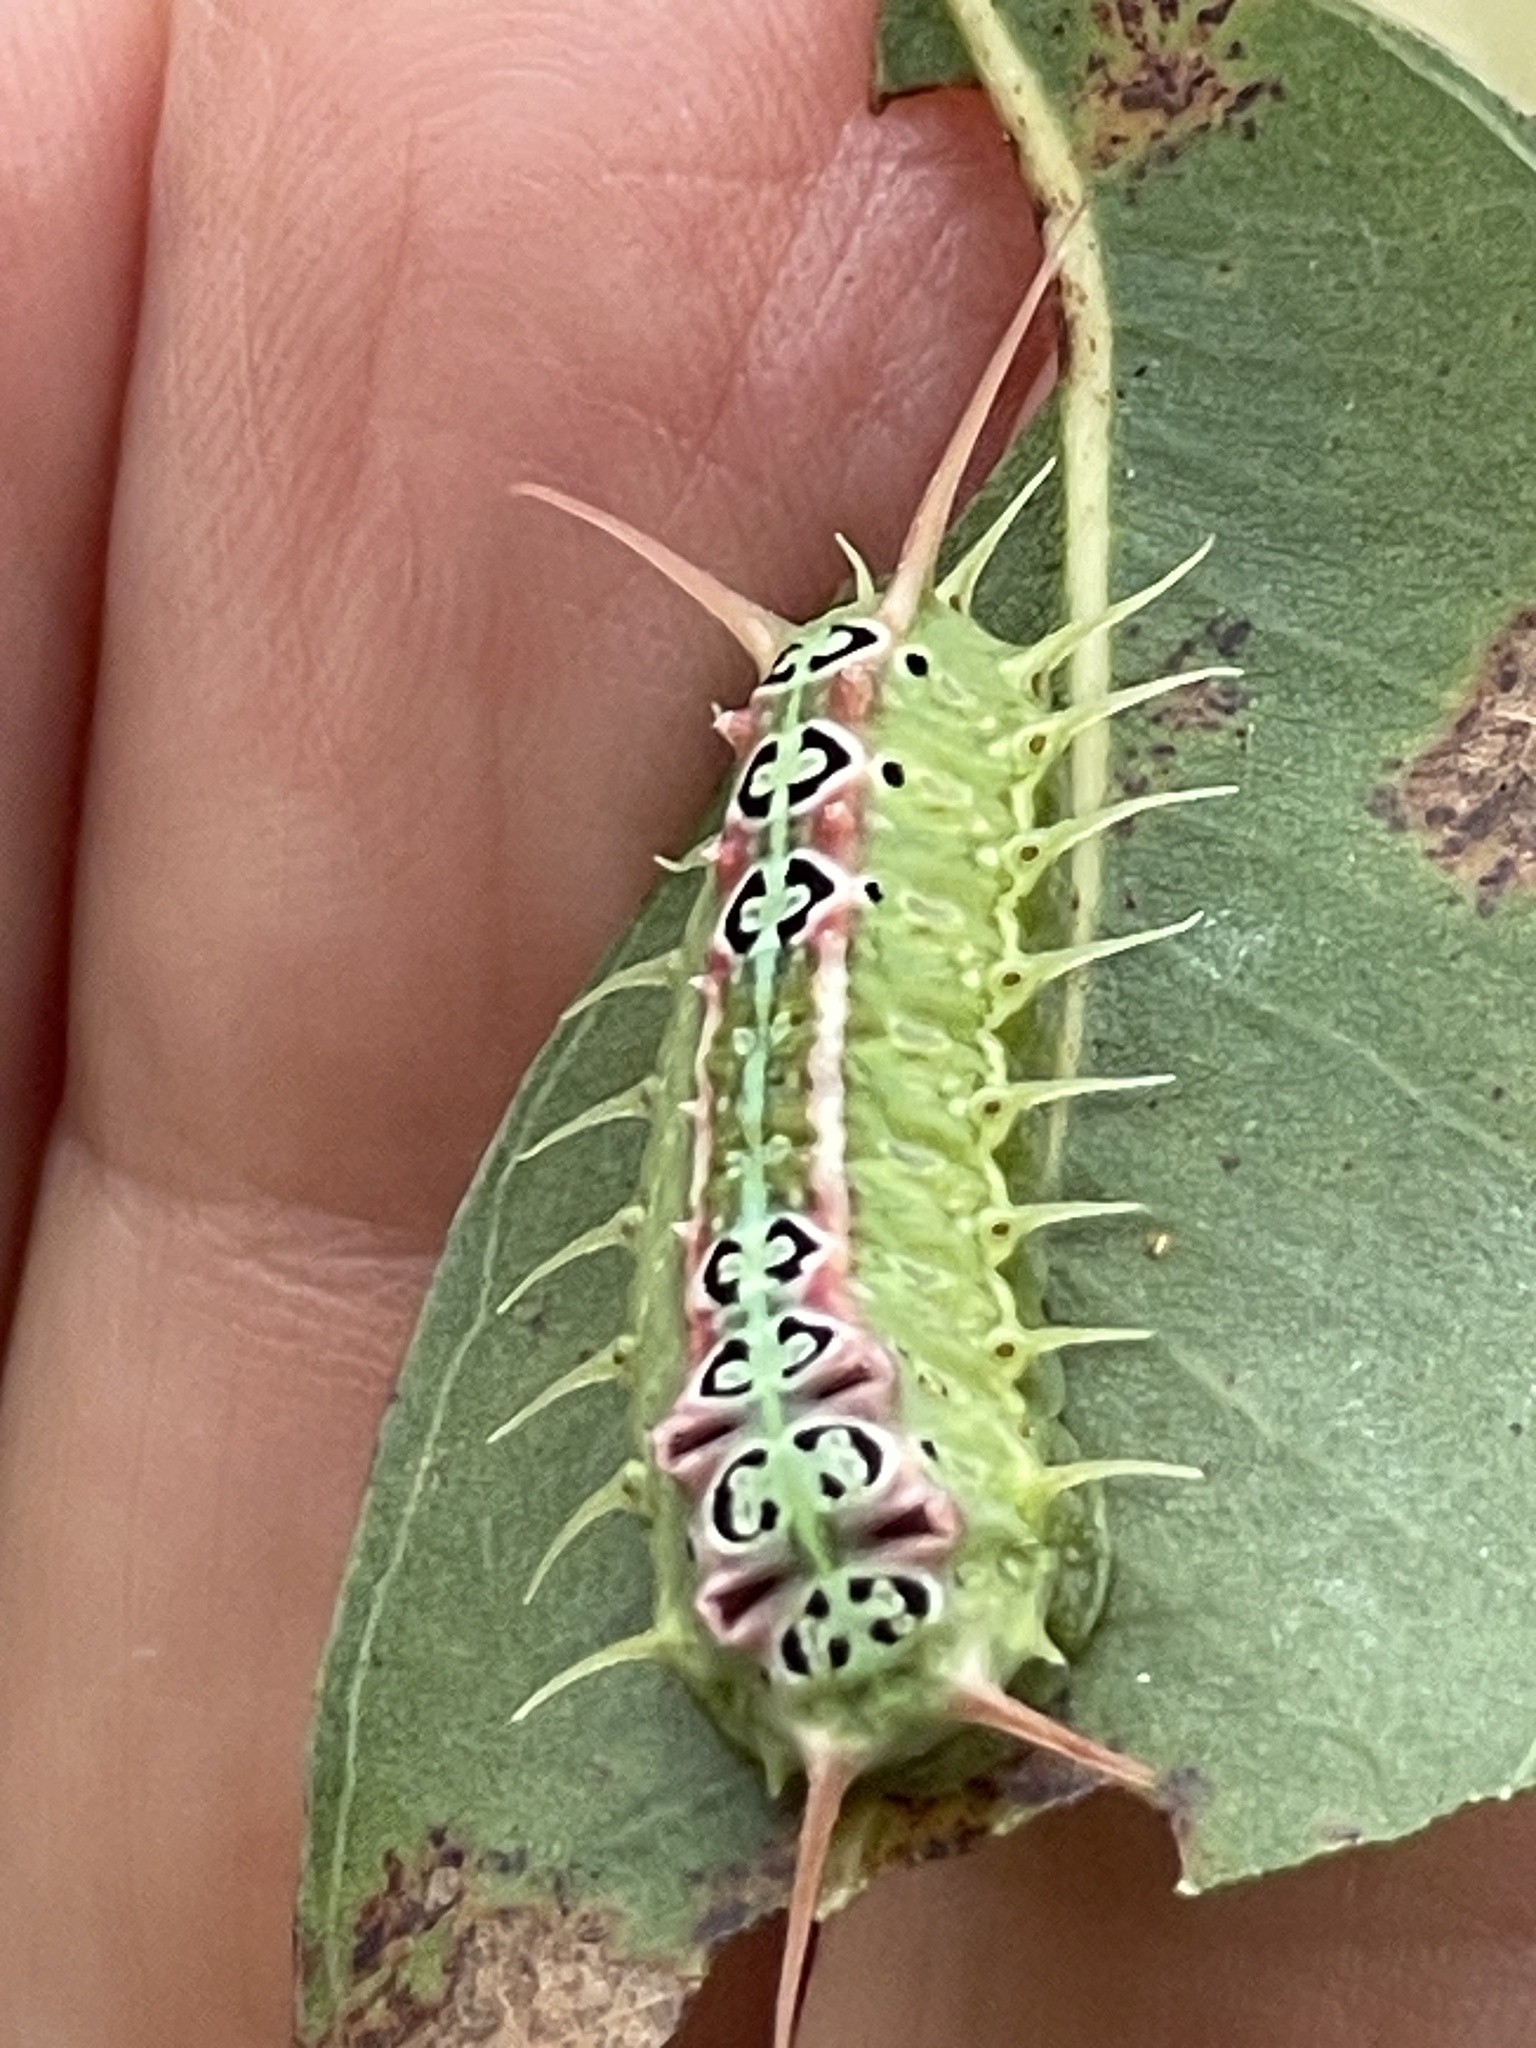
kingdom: Animalia
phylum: Arthropoda
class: Insecta
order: Lepidoptera
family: Limacodidae
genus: Doratifera
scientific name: Doratifera quadriguttata
